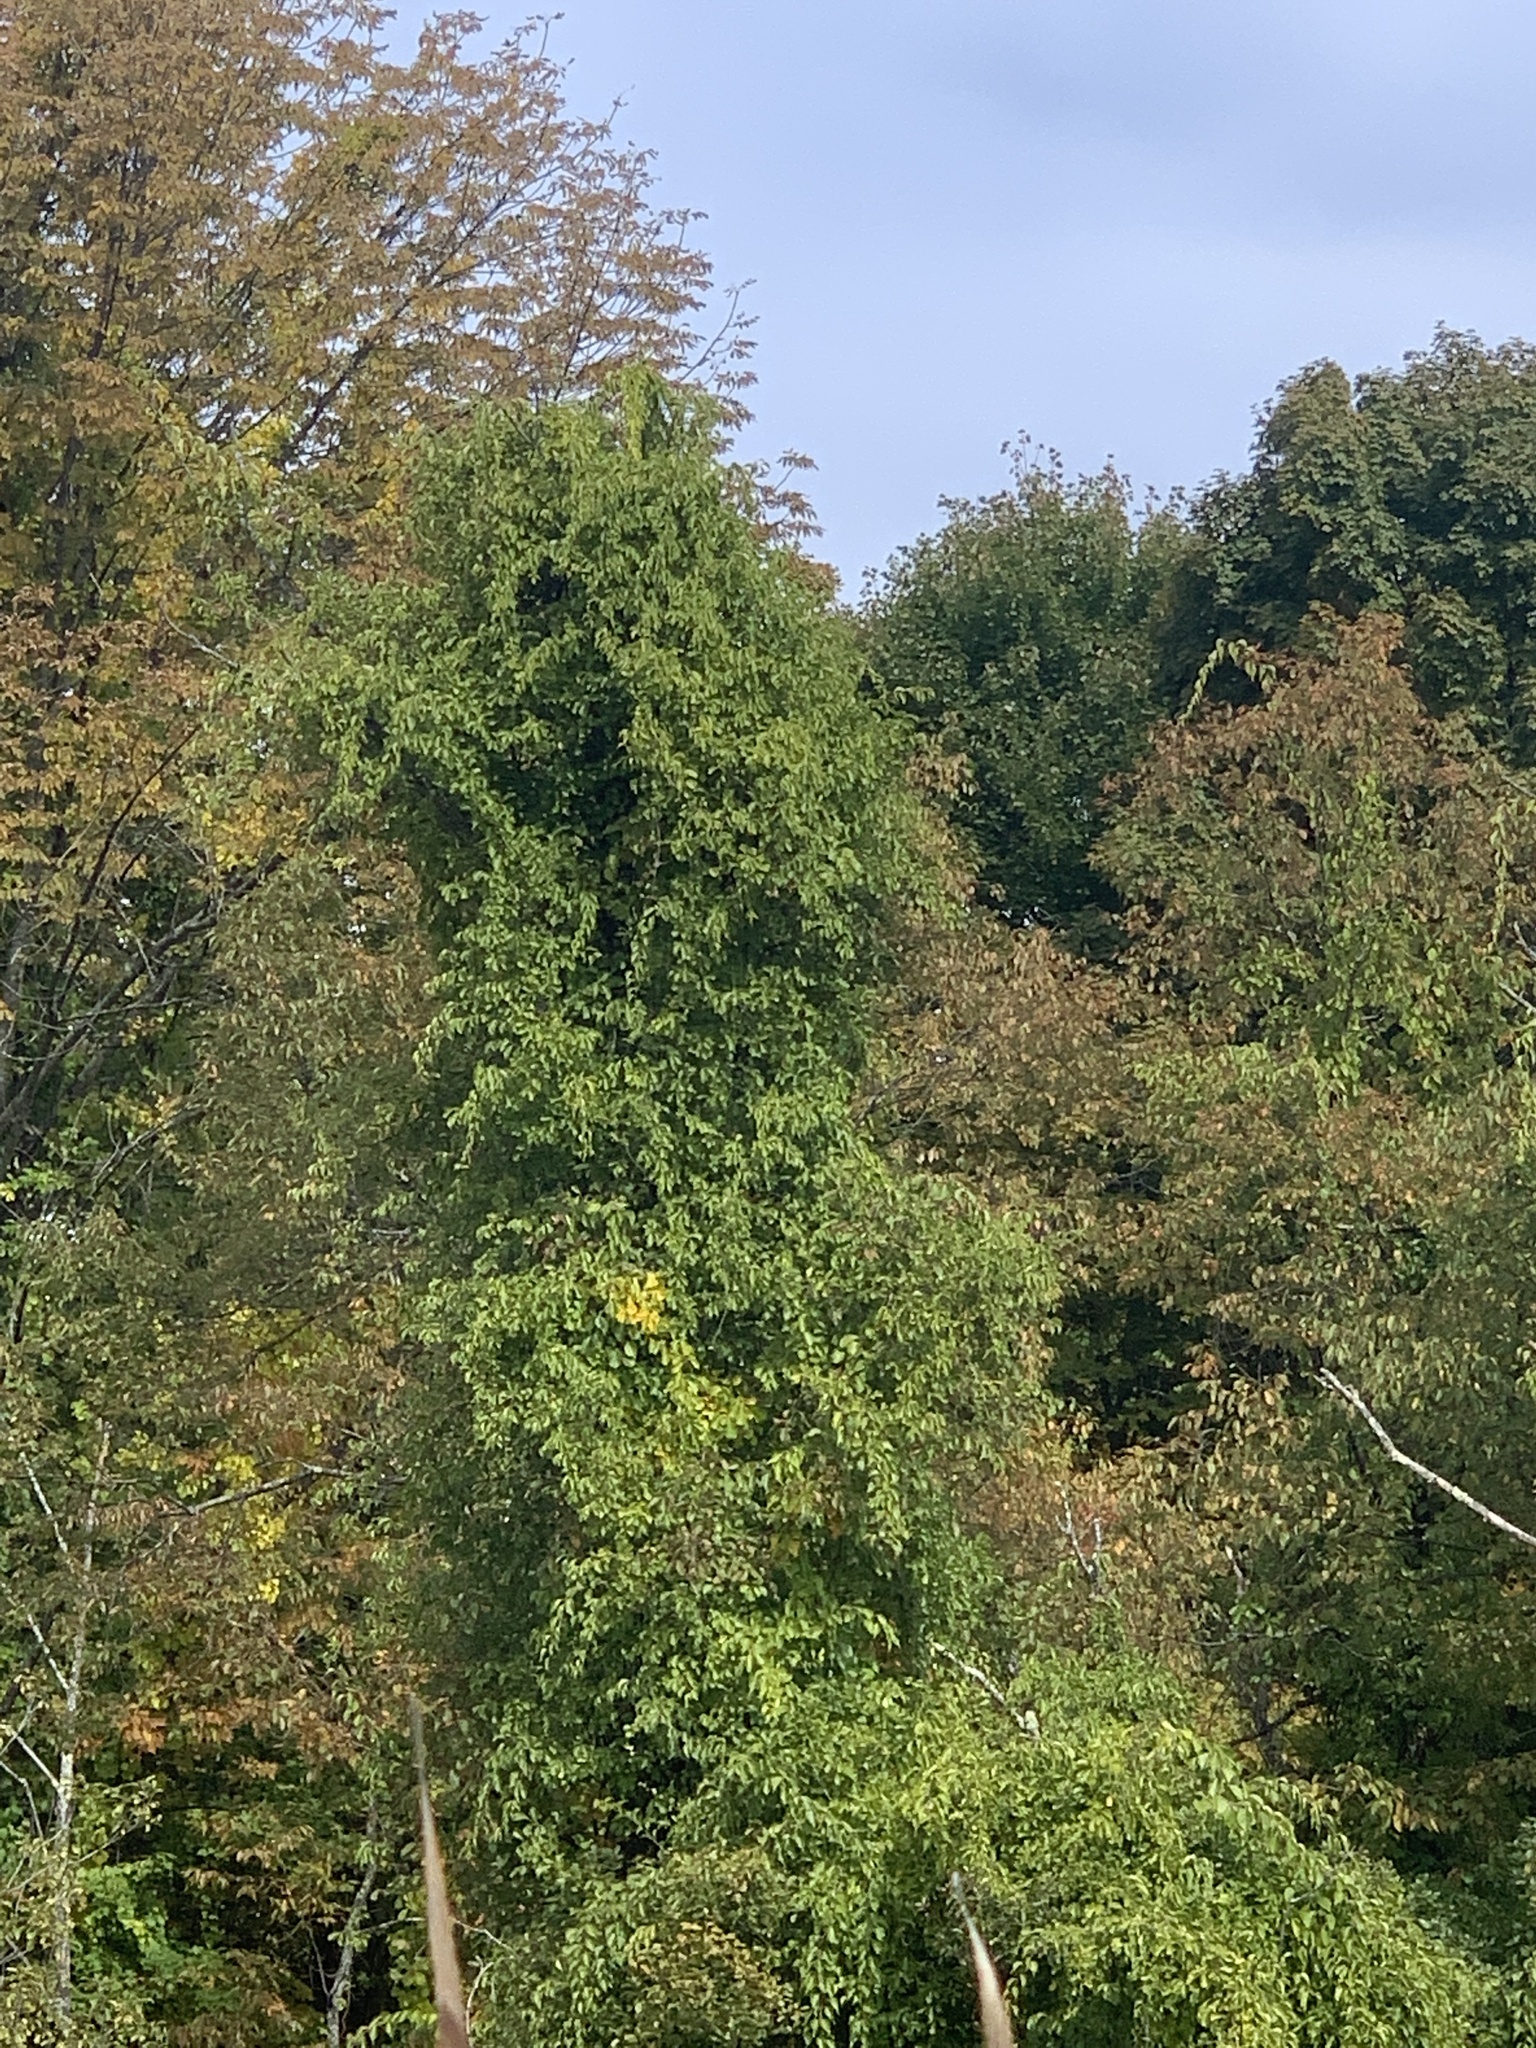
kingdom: Plantae
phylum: Tracheophyta
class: Magnoliopsida
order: Celastrales
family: Celastraceae
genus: Celastrus
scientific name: Celastrus orbiculatus
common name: Oriental bittersweet
